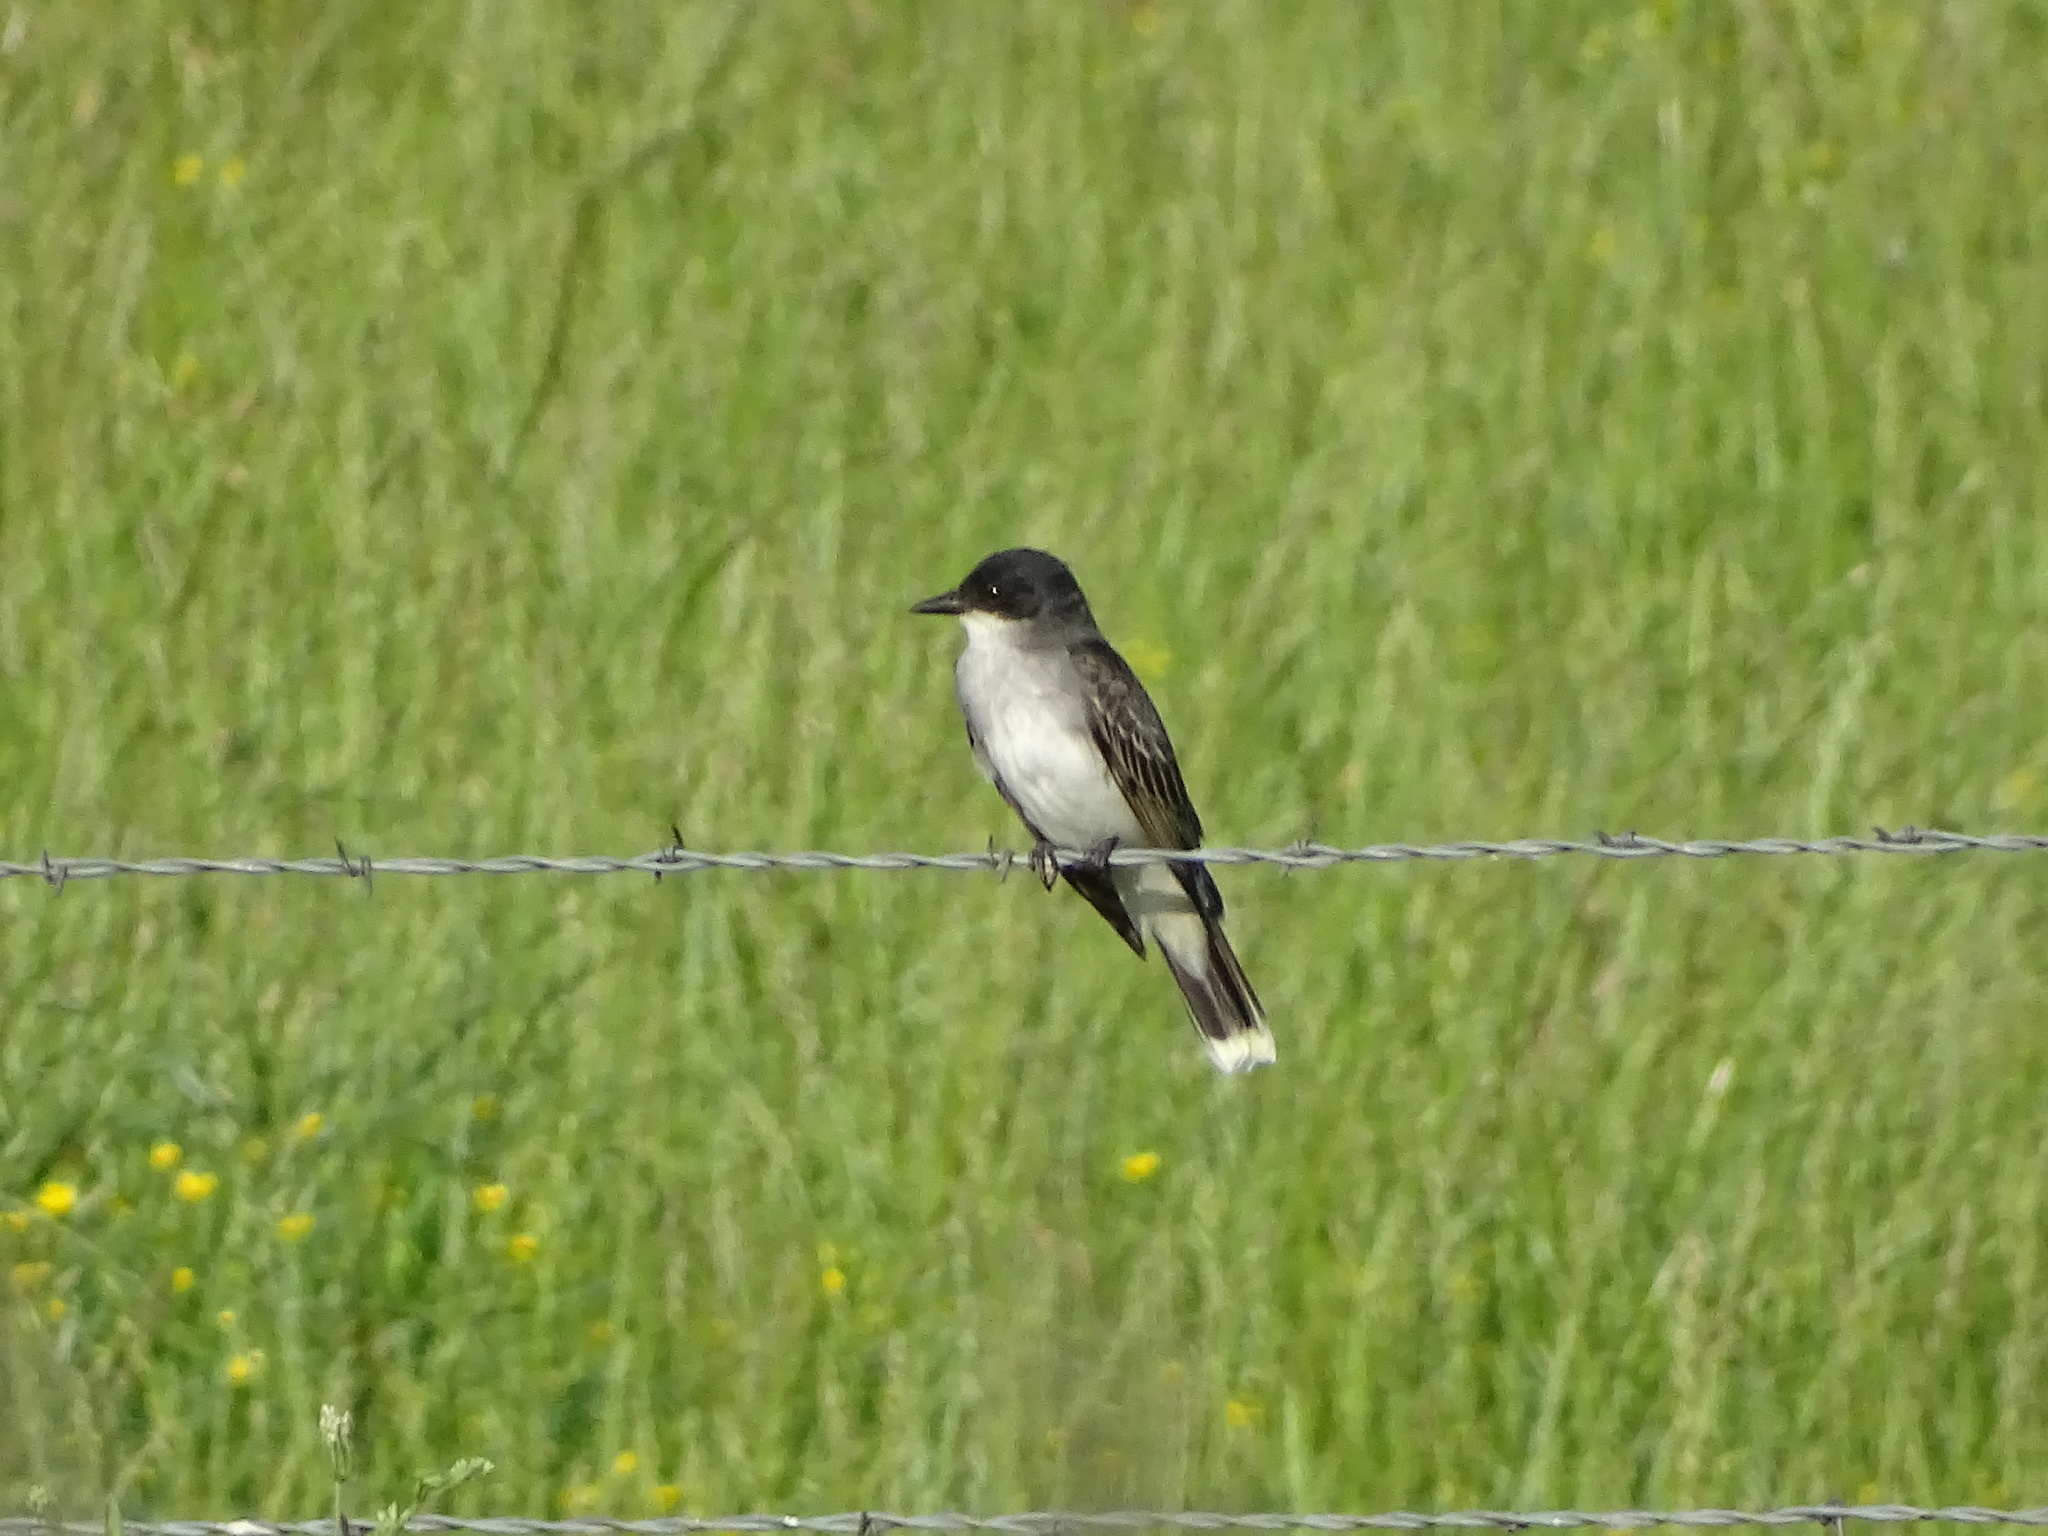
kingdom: Animalia
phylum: Chordata
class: Aves
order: Passeriformes
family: Tyrannidae
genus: Tyrannus
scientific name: Tyrannus tyrannus
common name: Eastern kingbird
